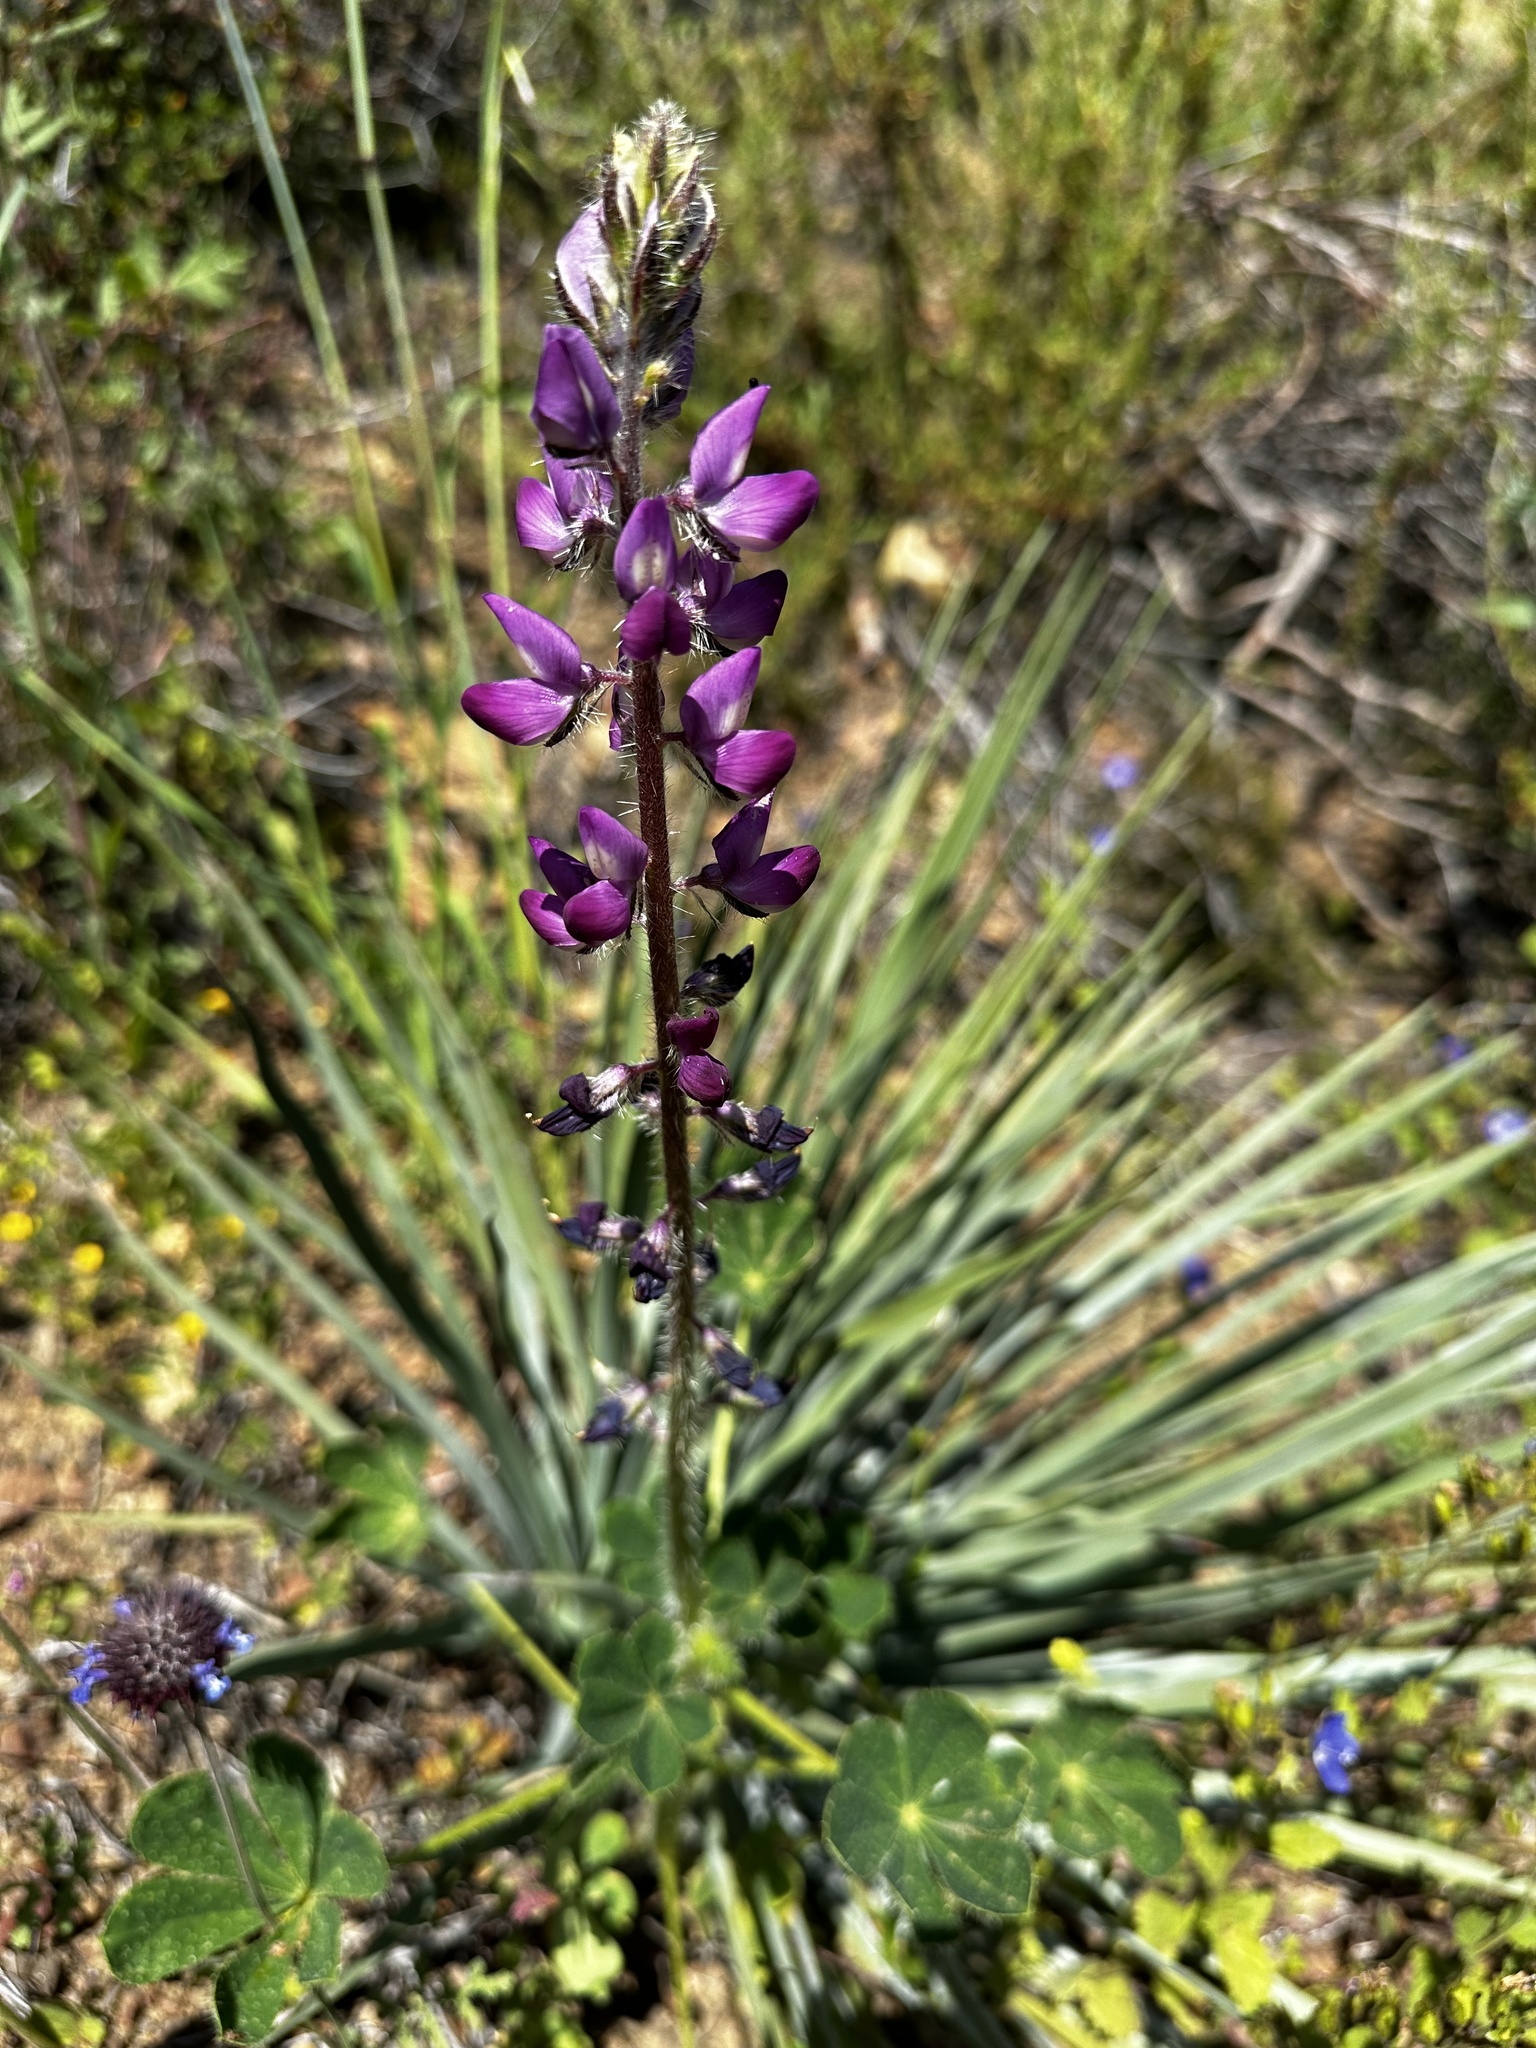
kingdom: Plantae
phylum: Tracheophyta
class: Magnoliopsida
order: Fabales
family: Fabaceae
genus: Lupinus
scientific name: Lupinus hirsutissimus
